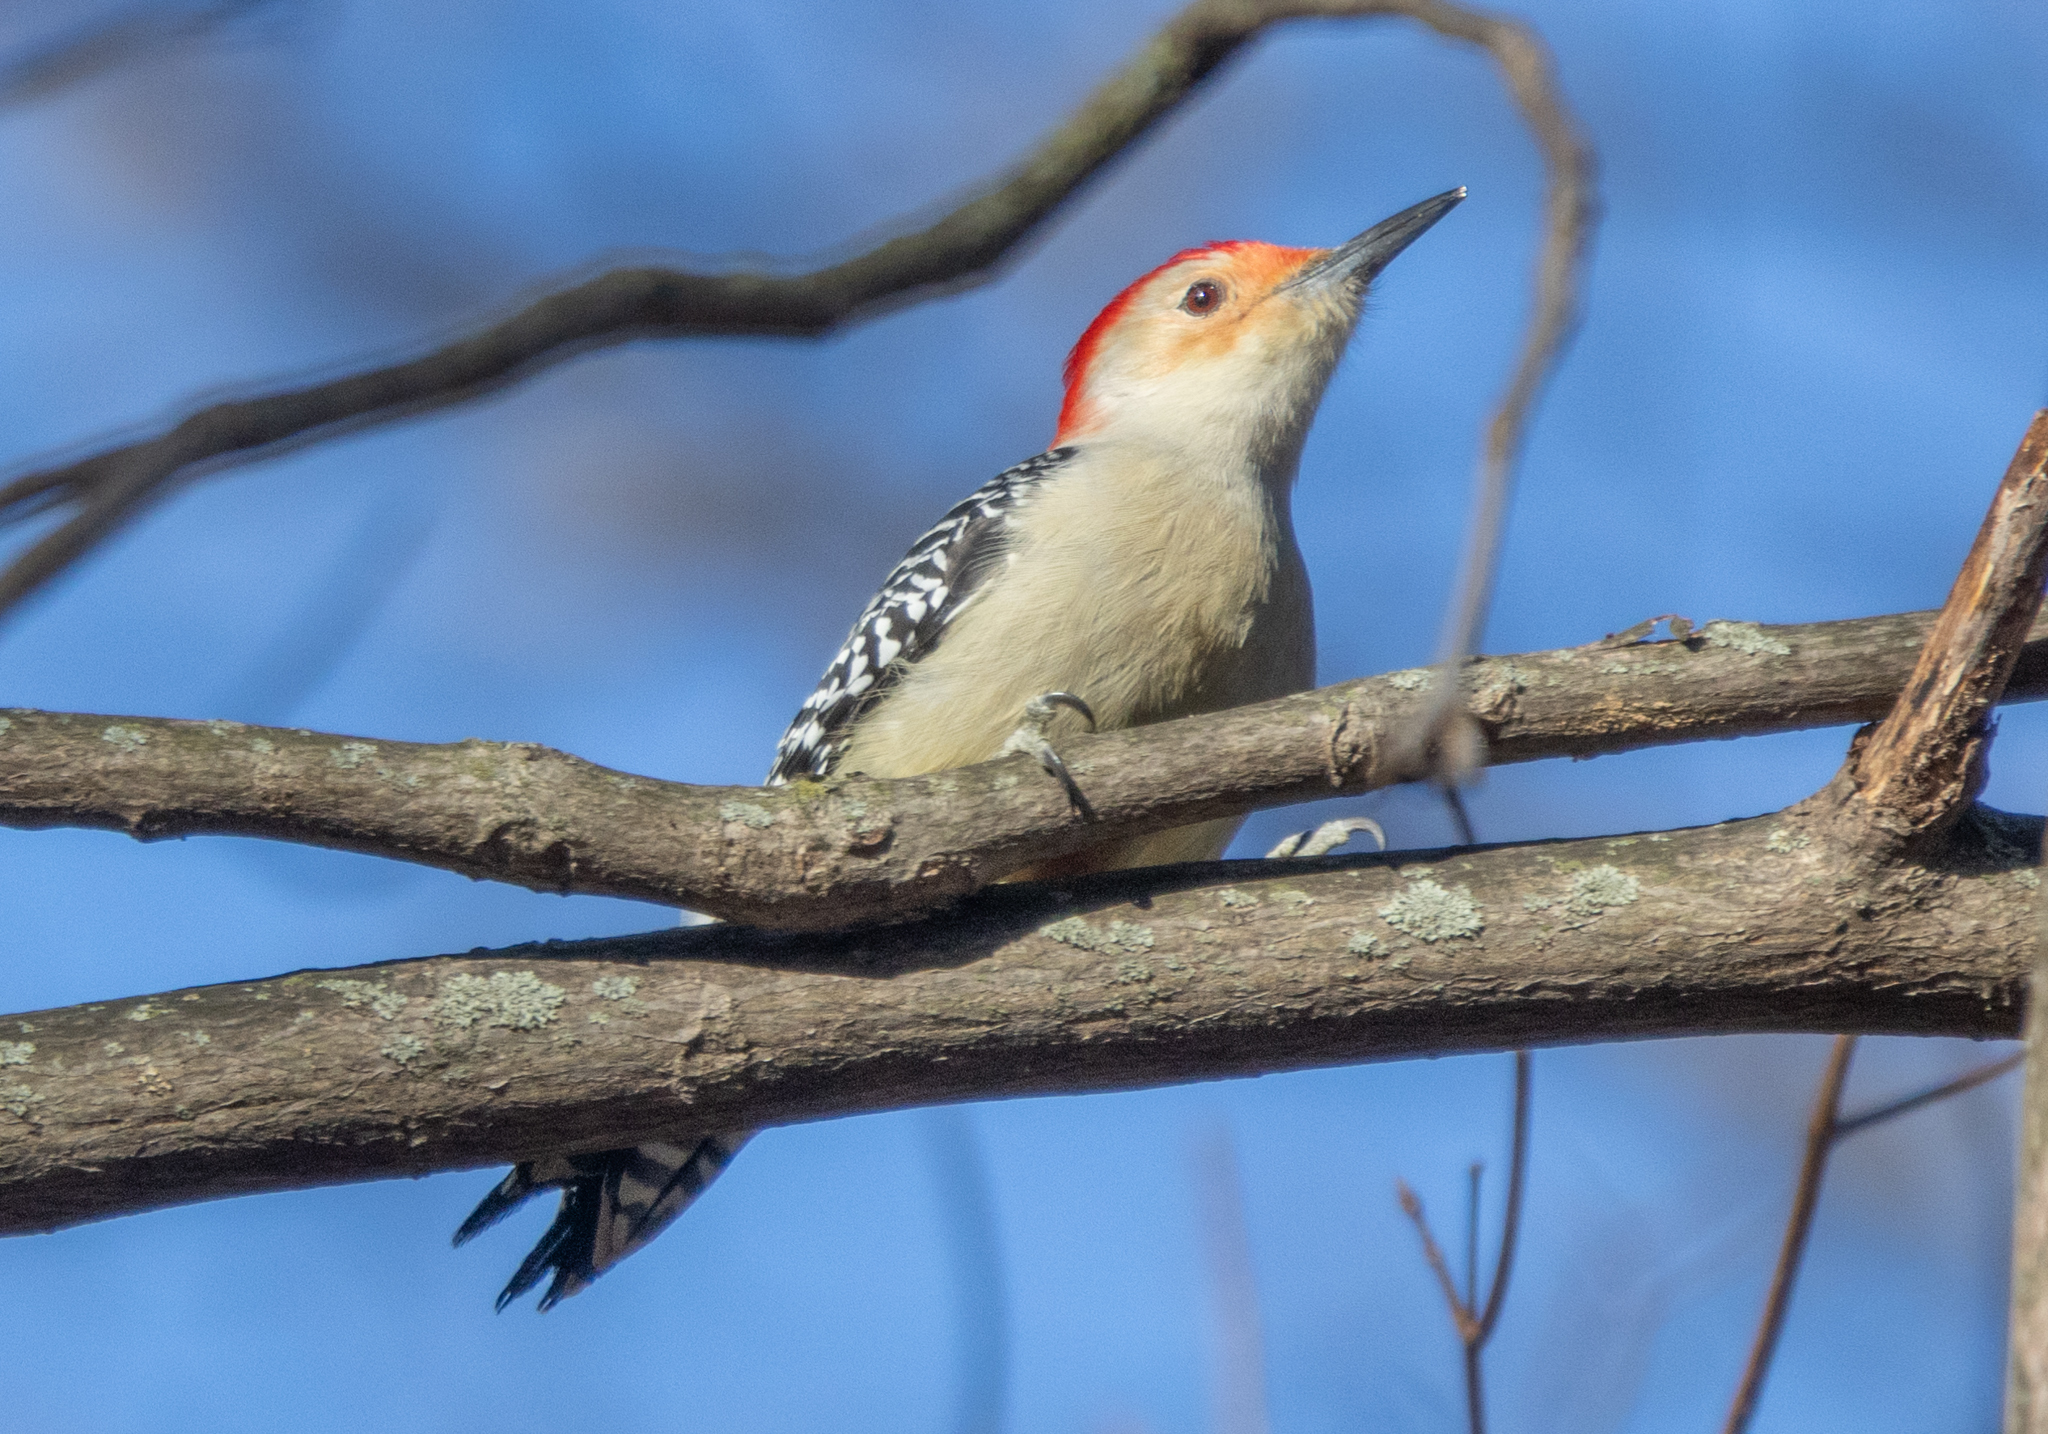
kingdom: Animalia
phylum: Chordata
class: Aves
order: Piciformes
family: Picidae
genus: Melanerpes
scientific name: Melanerpes carolinus
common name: Red-bellied woodpecker
